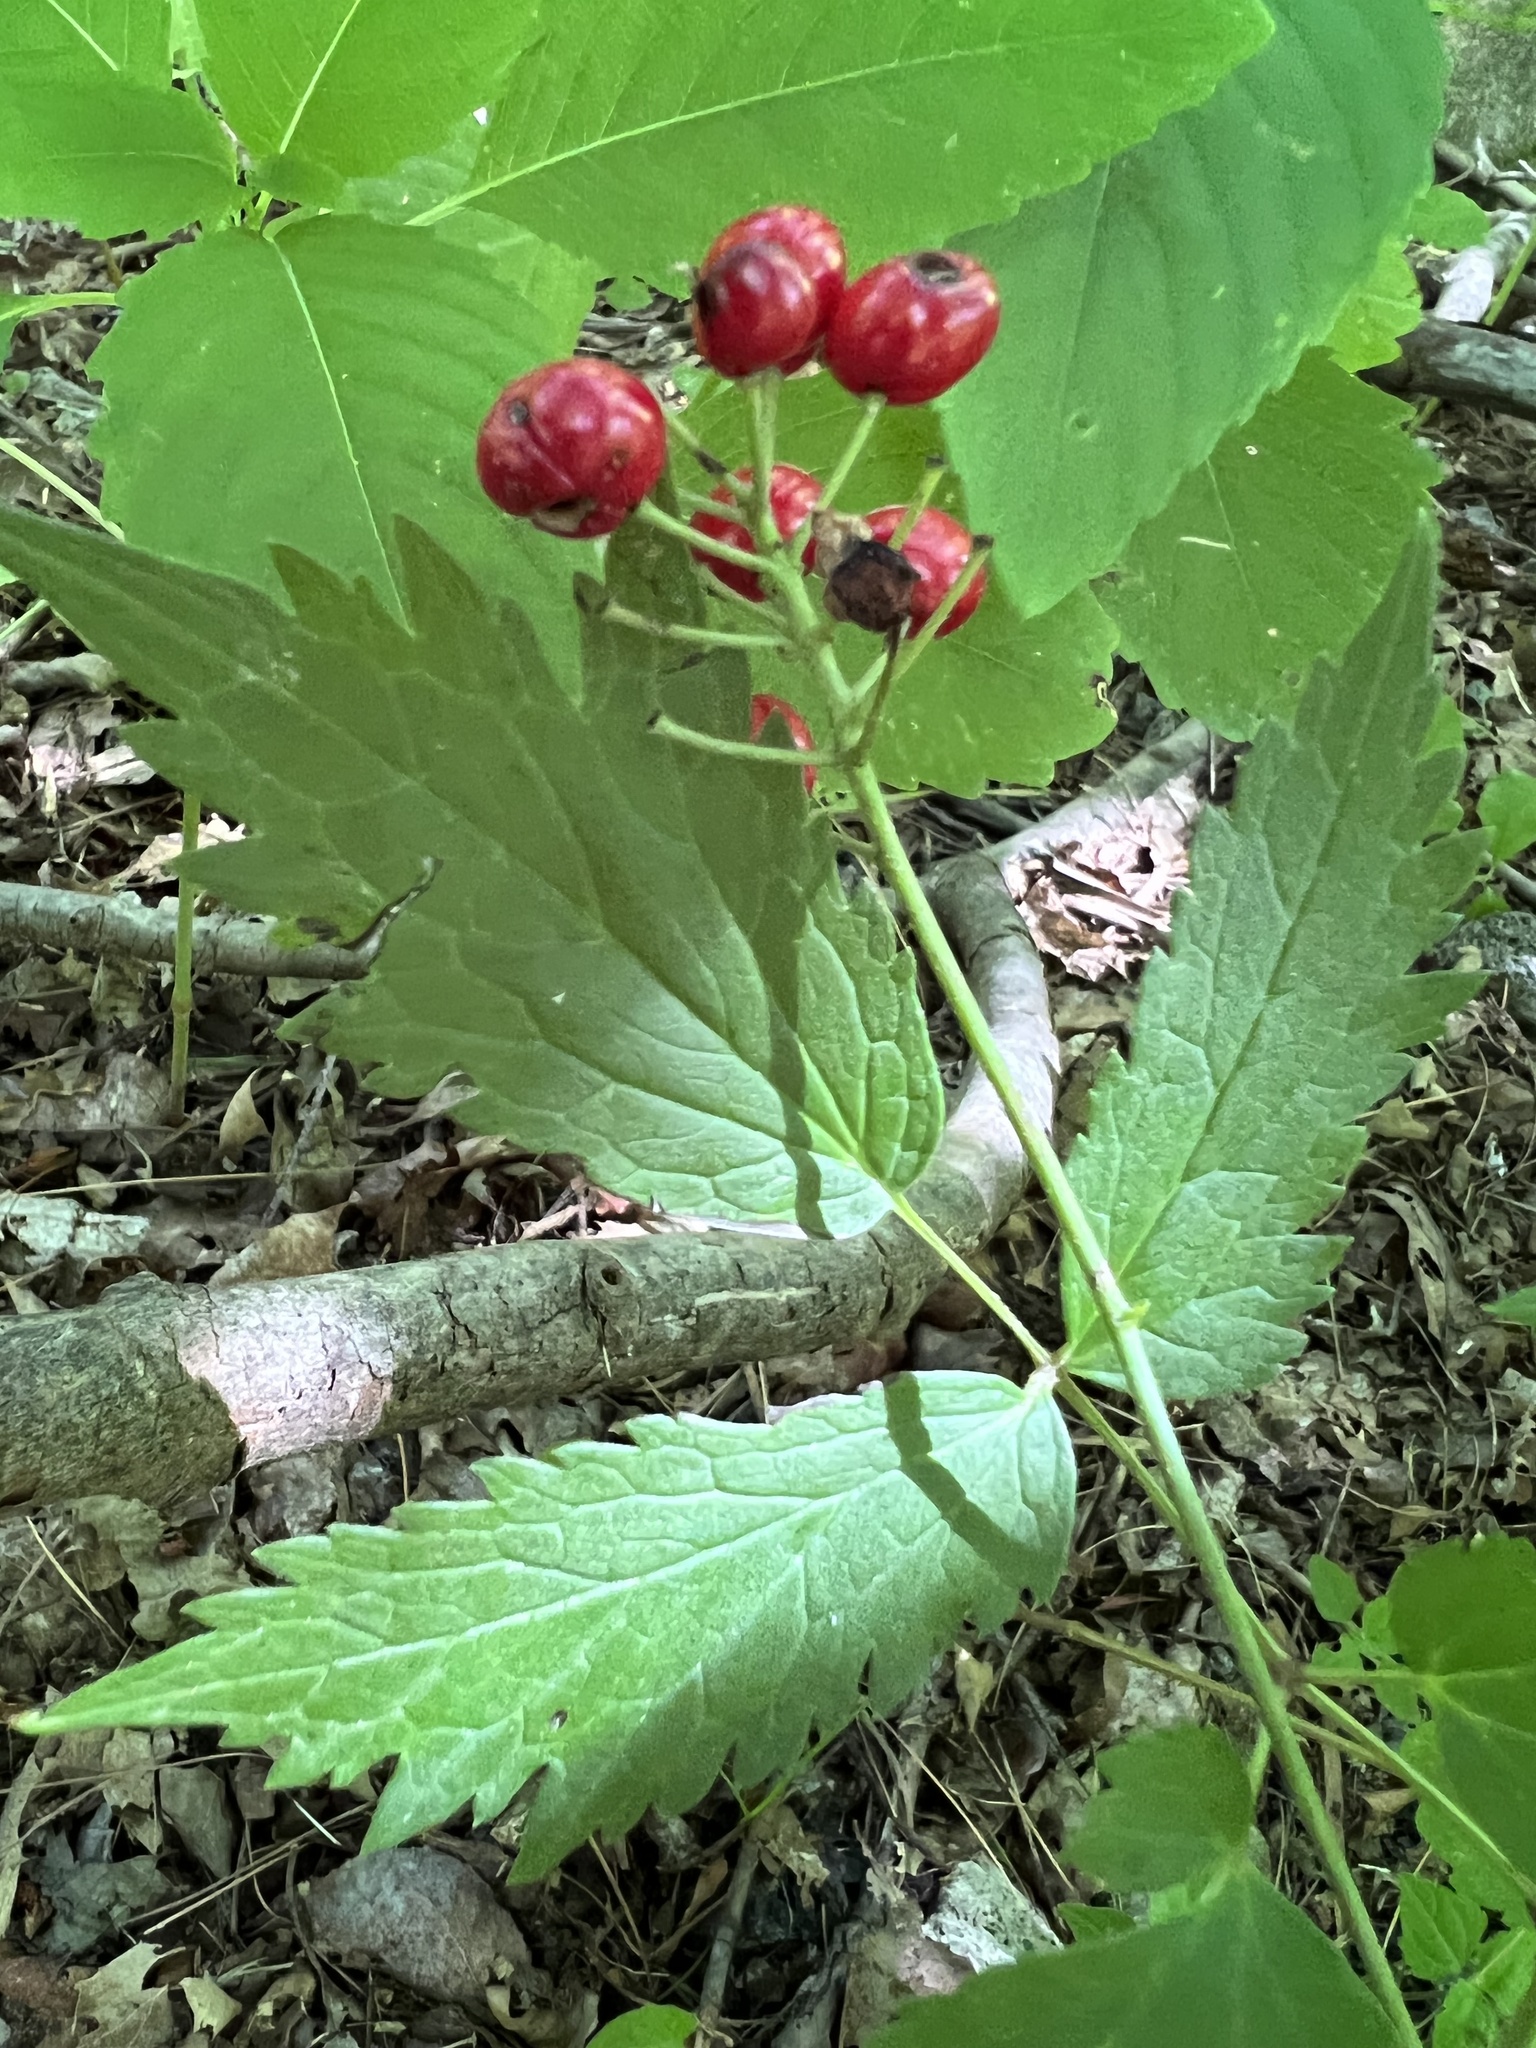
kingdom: Plantae
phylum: Tracheophyta
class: Magnoliopsida
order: Ranunculales
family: Ranunculaceae
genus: Actaea
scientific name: Actaea rubra
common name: Red baneberry
